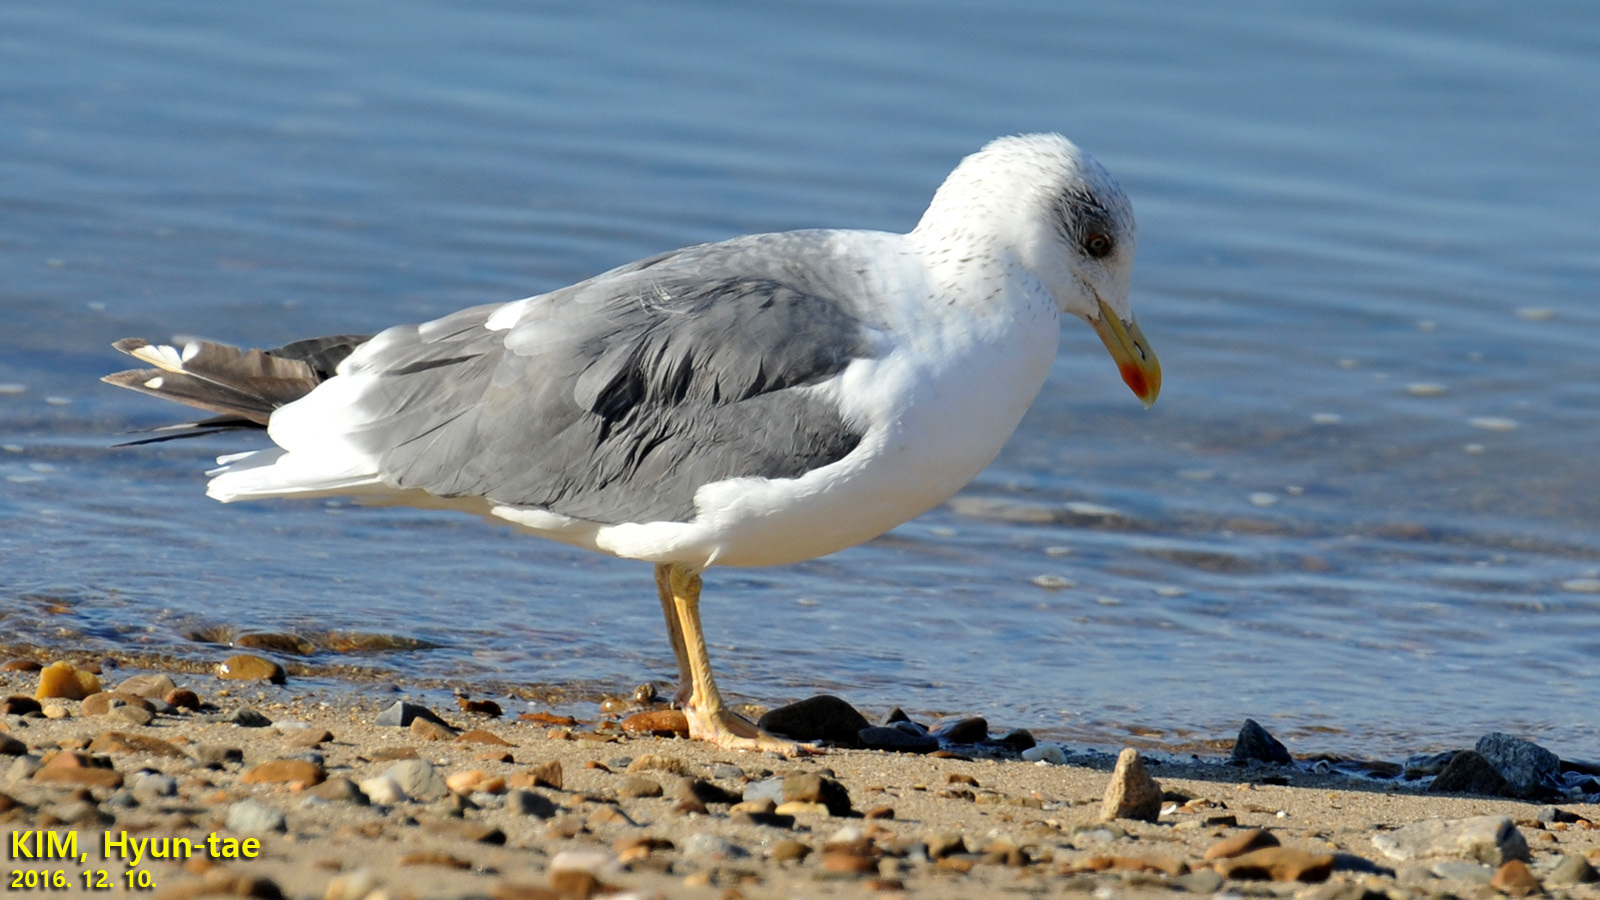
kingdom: Animalia
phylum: Chordata
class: Aves
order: Charadriiformes
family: Laridae
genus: Larus
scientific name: Larus fuscus
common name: Lesser black-backed gull
